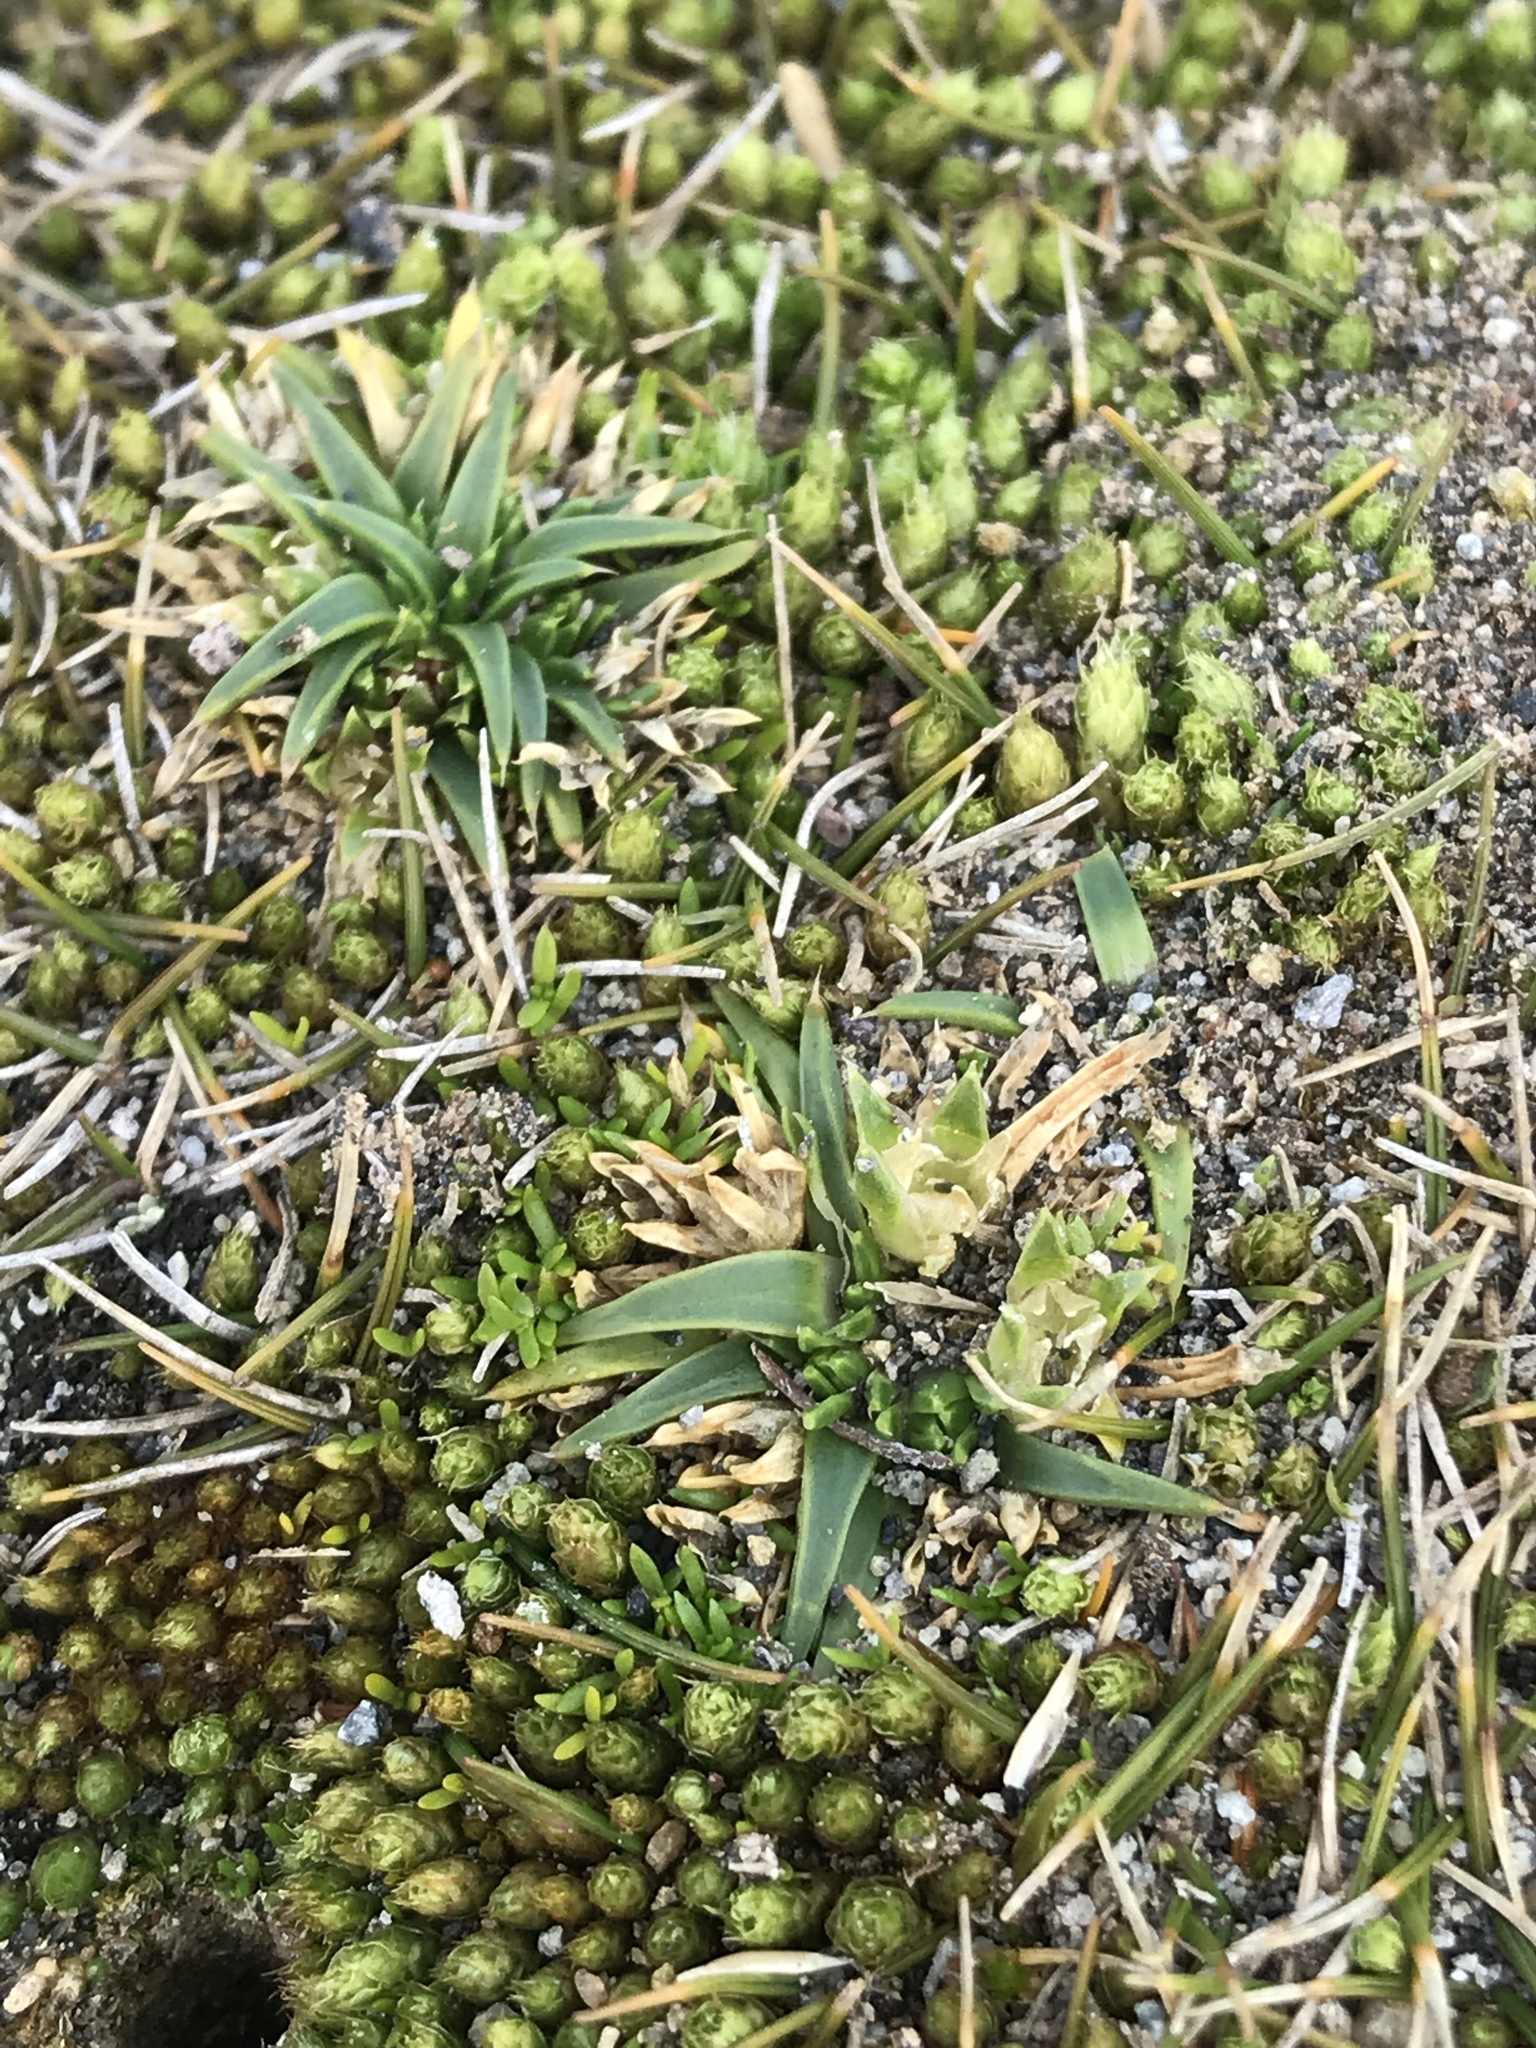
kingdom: Plantae
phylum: Tracheophyta
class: Magnoliopsida
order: Caryophyllales
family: Caryophyllaceae
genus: Colobanthus
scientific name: Colobanthus muelleri
